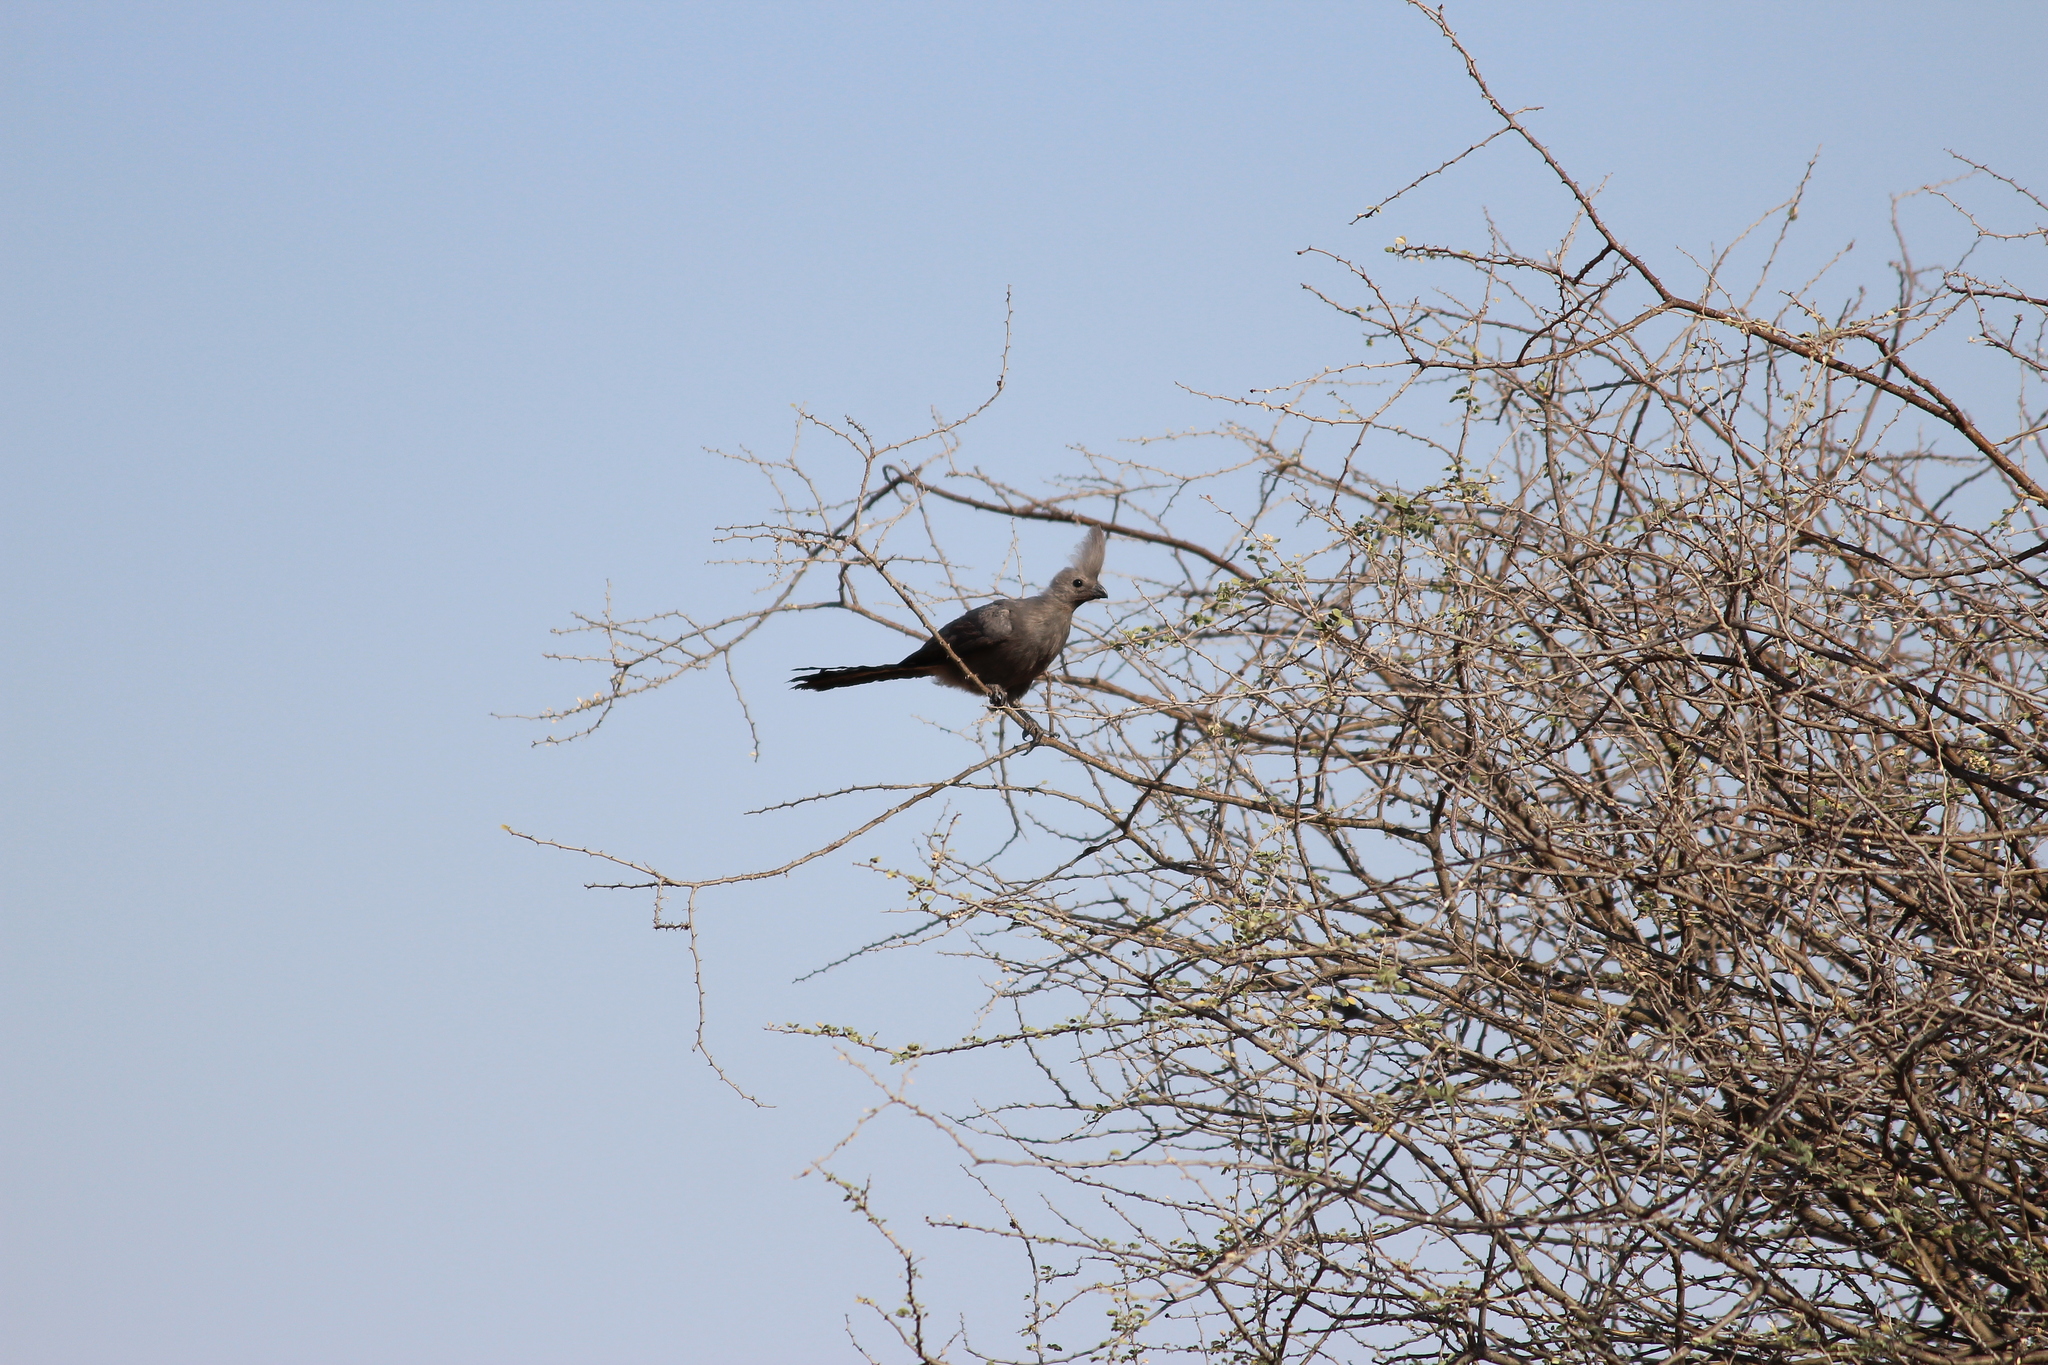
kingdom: Animalia
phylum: Chordata
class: Aves
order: Musophagiformes
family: Musophagidae
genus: Corythaixoides
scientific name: Corythaixoides concolor
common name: Grey go-away-bird
